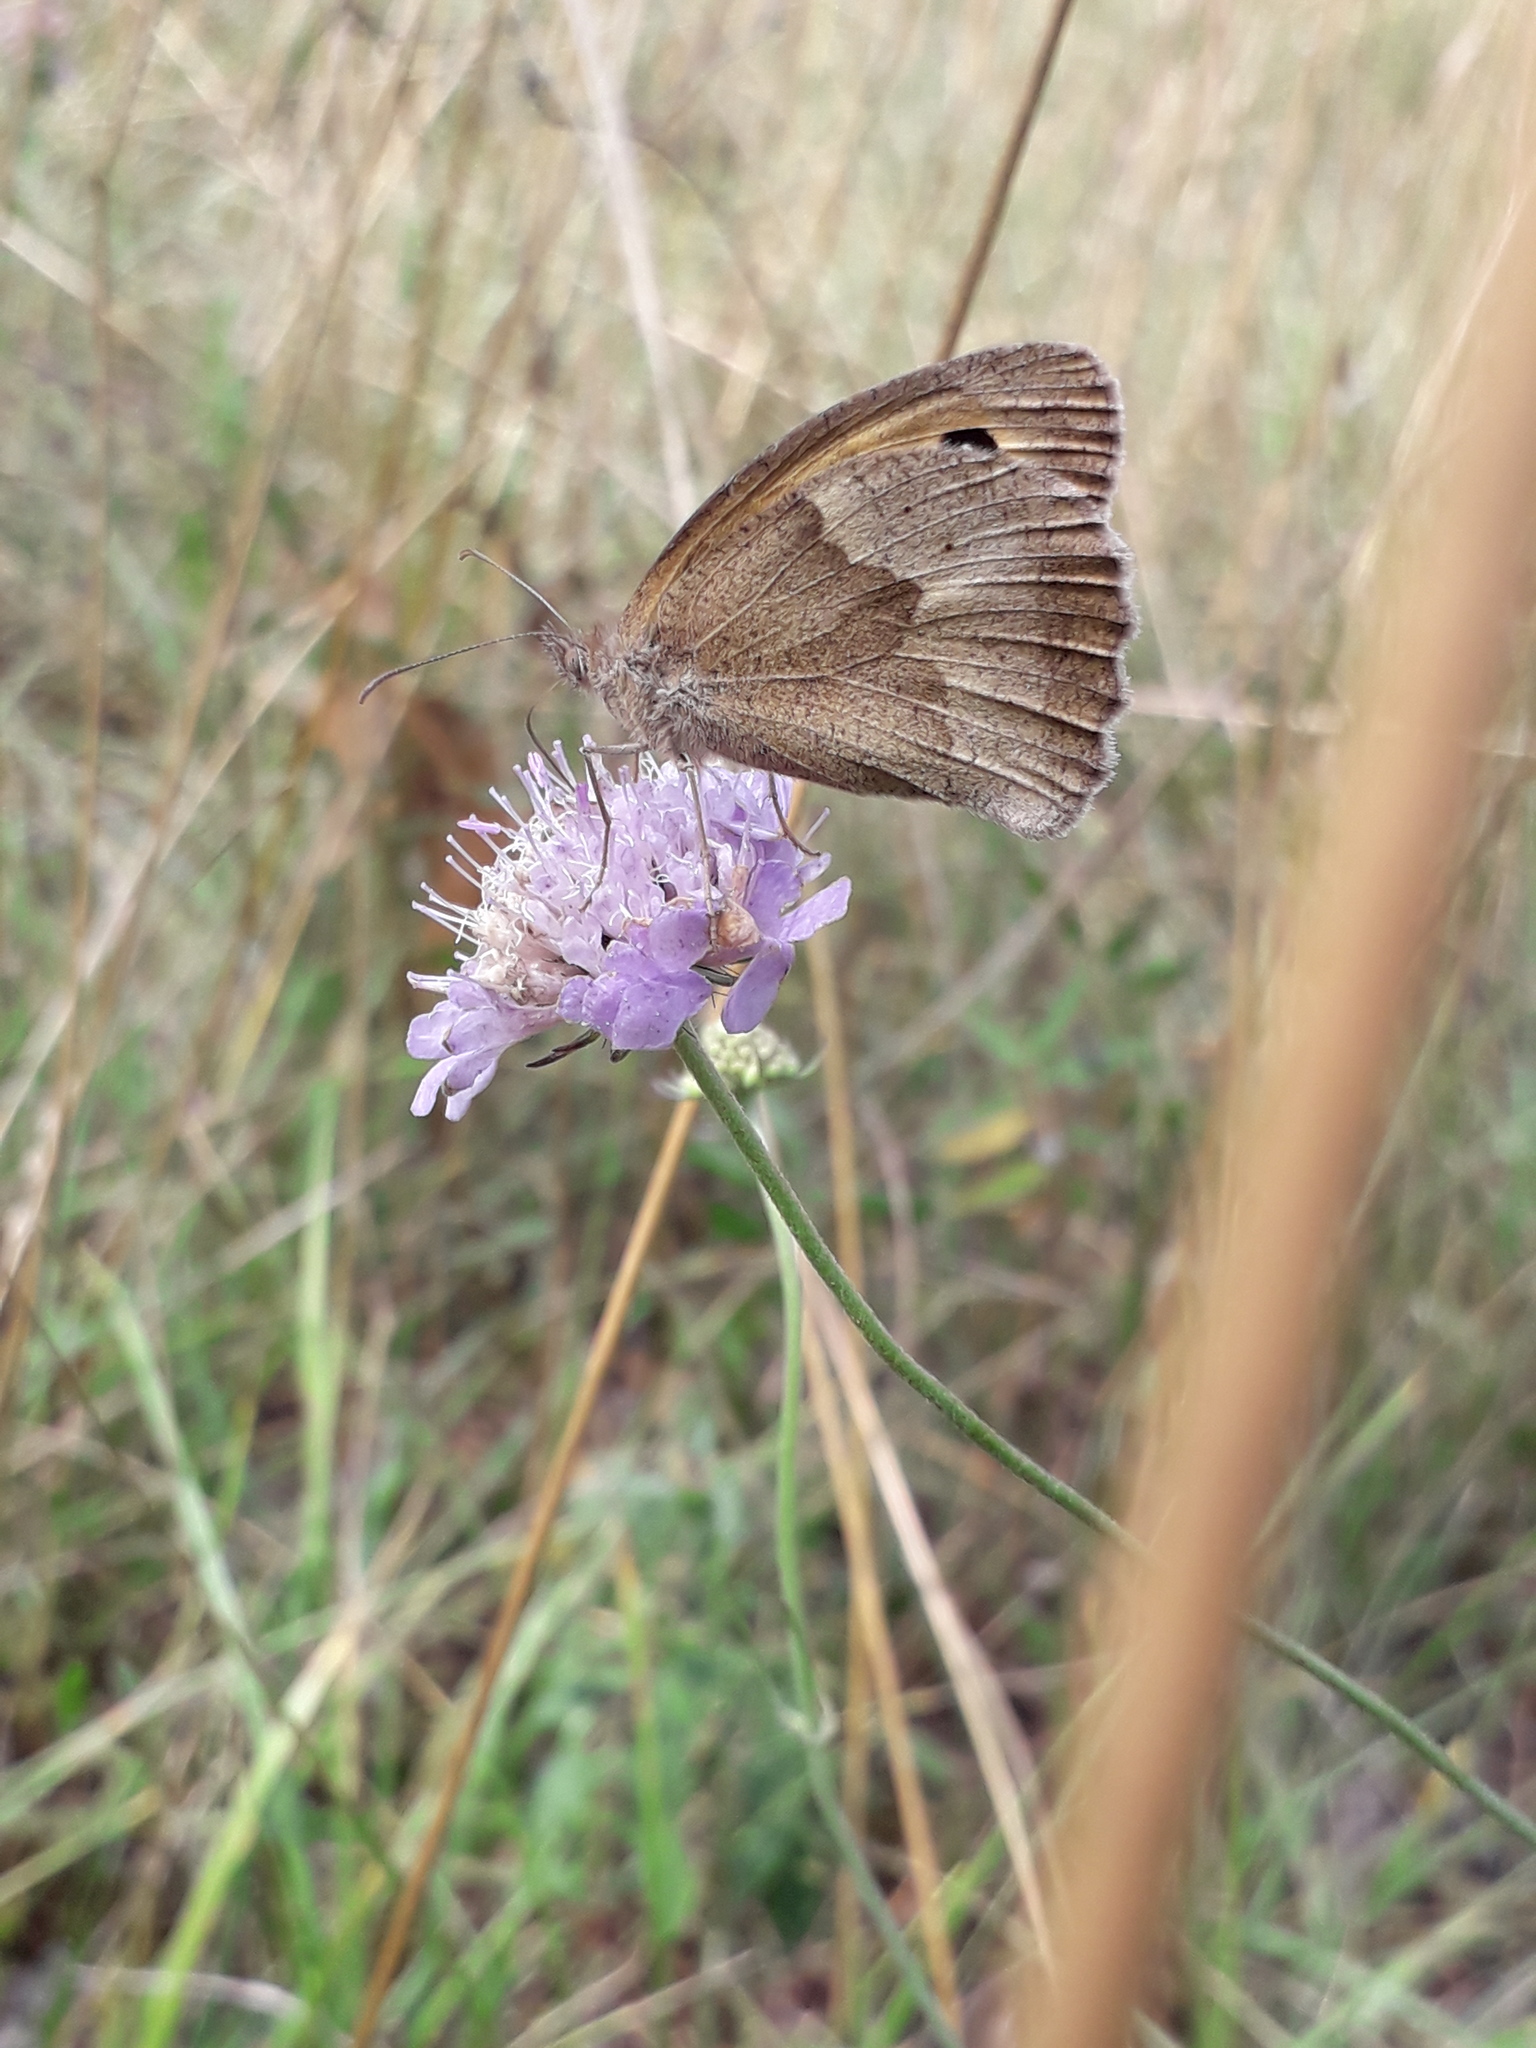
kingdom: Animalia
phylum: Arthropoda
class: Insecta
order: Lepidoptera
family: Nymphalidae
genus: Maniola
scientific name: Maniola jurtina
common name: Meadow brown
